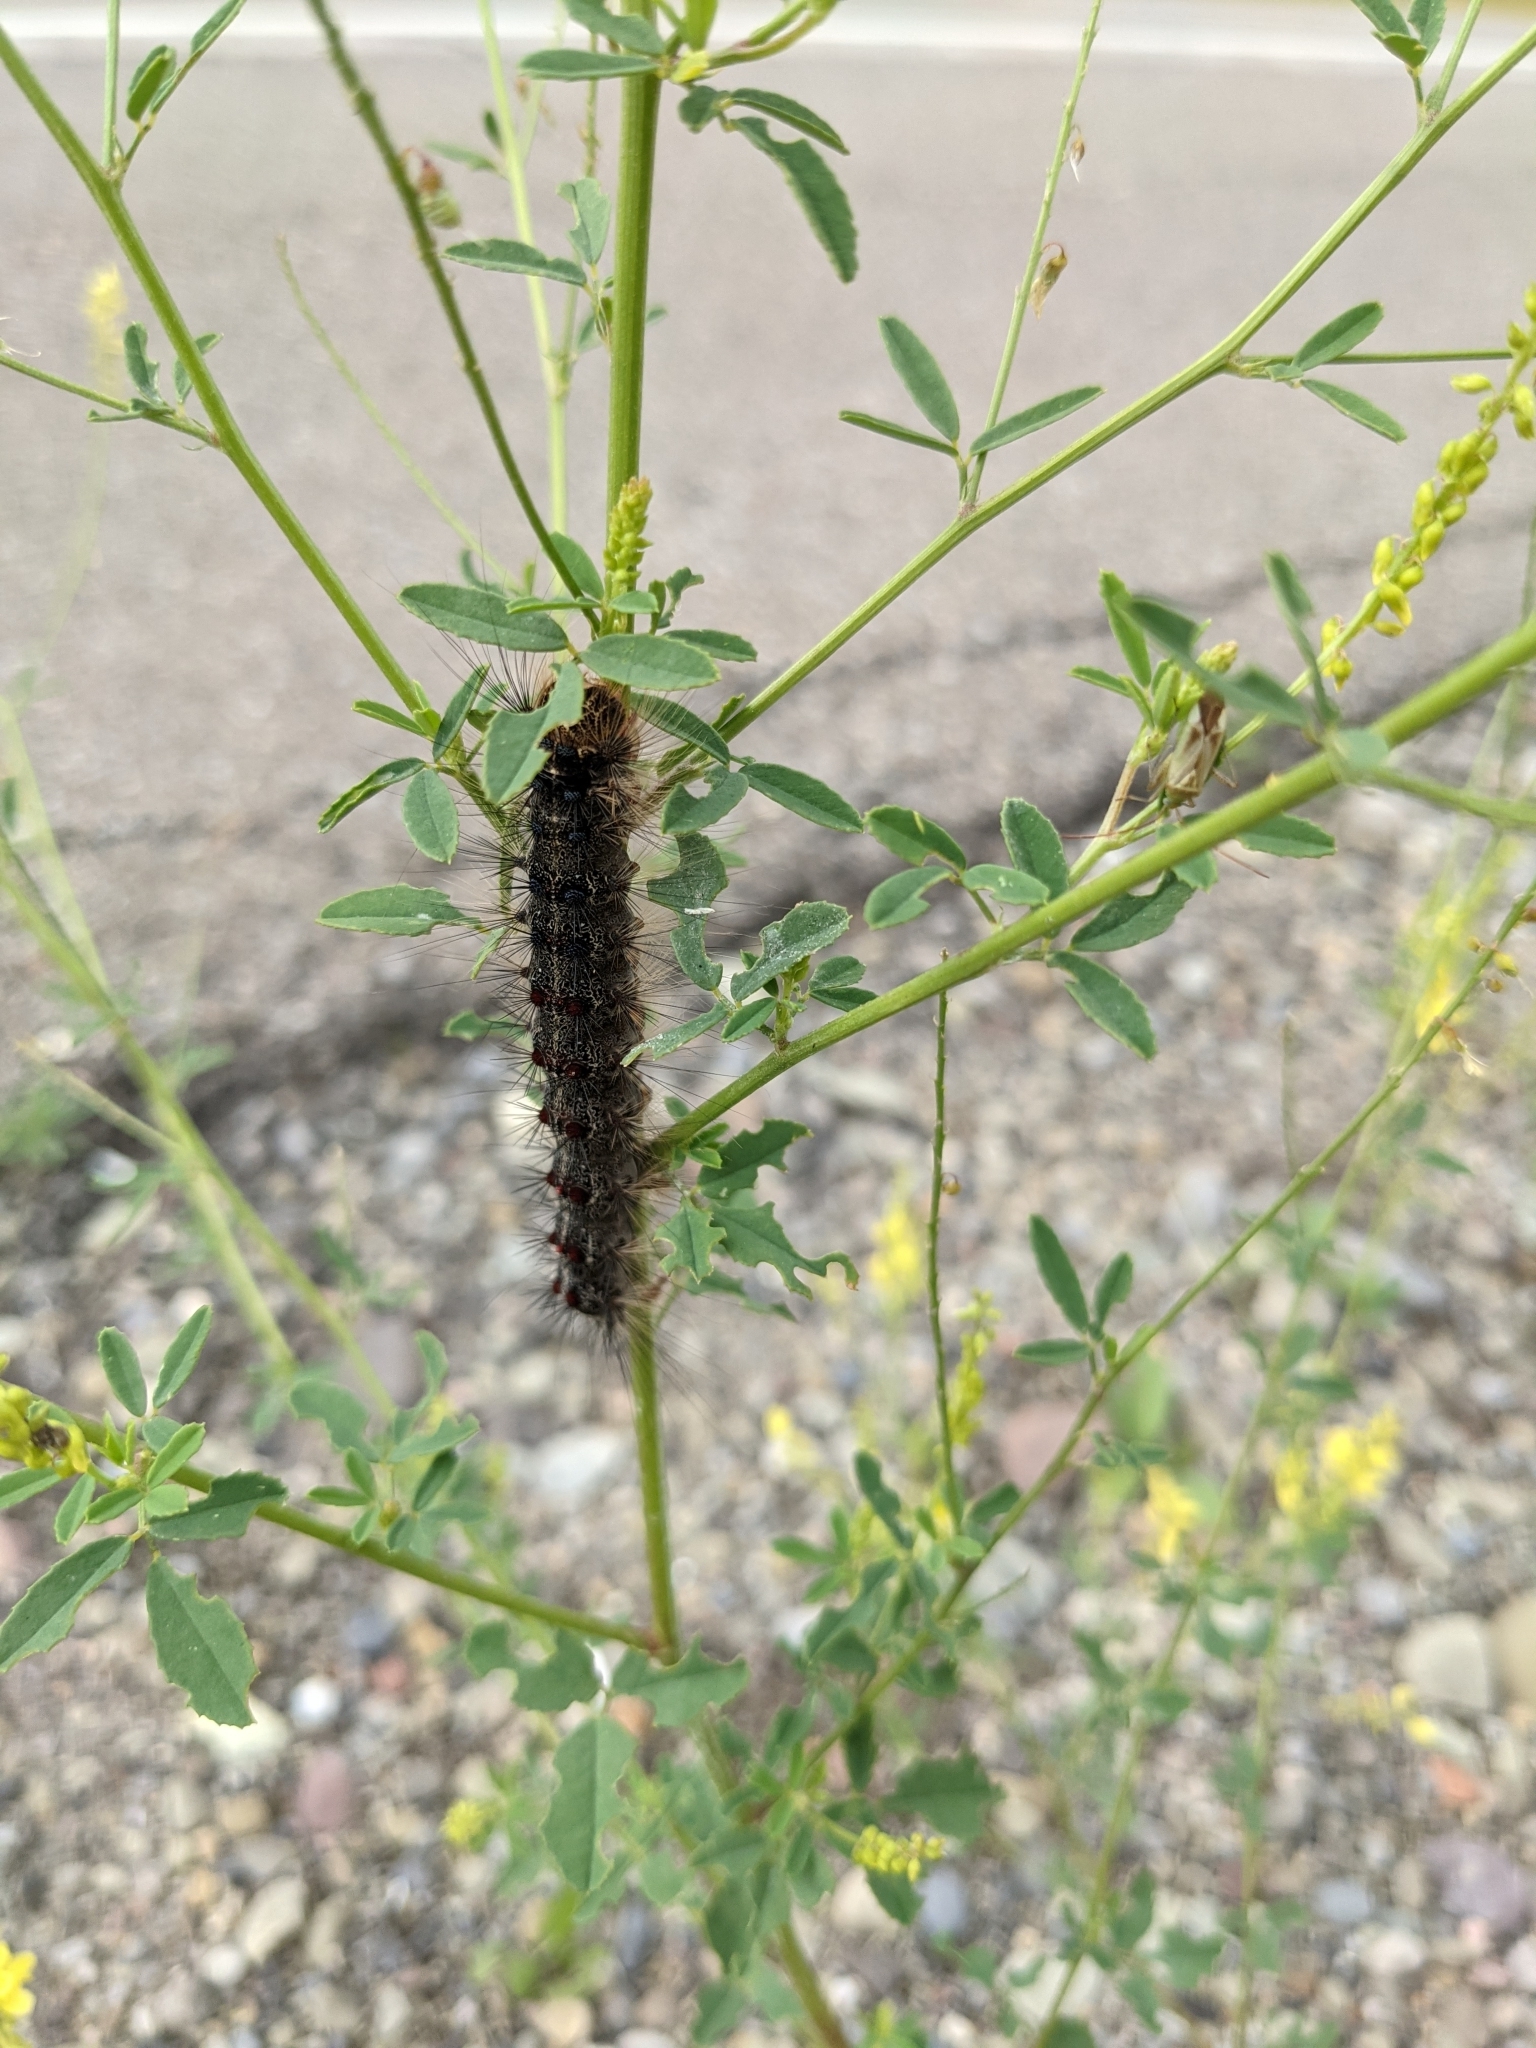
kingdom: Animalia
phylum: Arthropoda
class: Insecta
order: Lepidoptera
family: Erebidae
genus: Lymantria
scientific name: Lymantria dispar
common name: Gypsy moth
